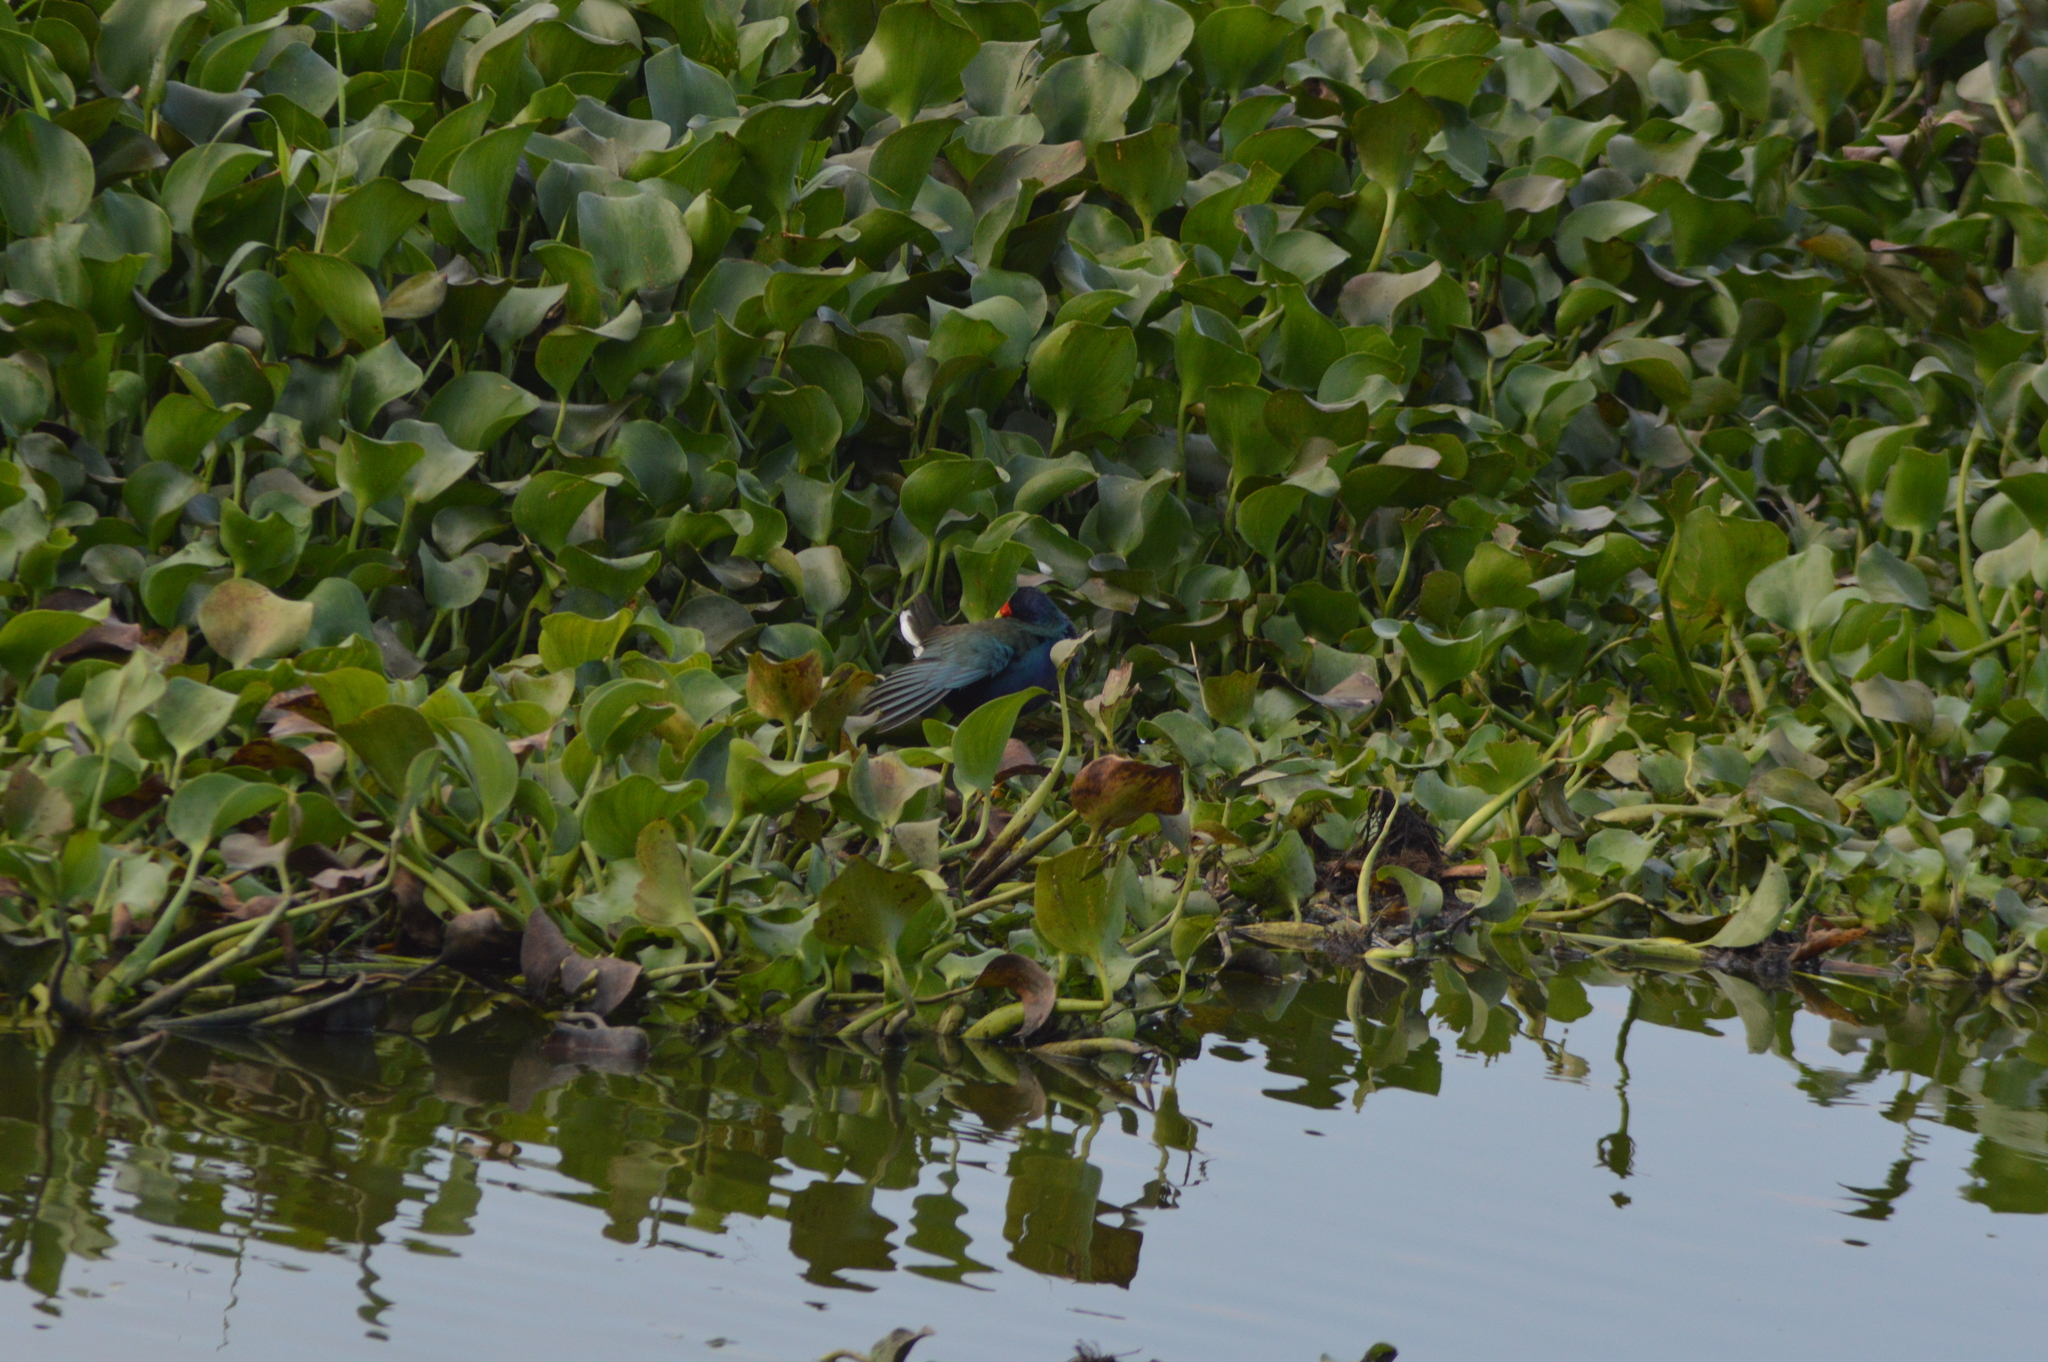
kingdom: Animalia
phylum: Chordata
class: Aves
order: Gruiformes
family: Rallidae
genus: Porphyrio
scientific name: Porphyrio martinica
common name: Purple gallinule
